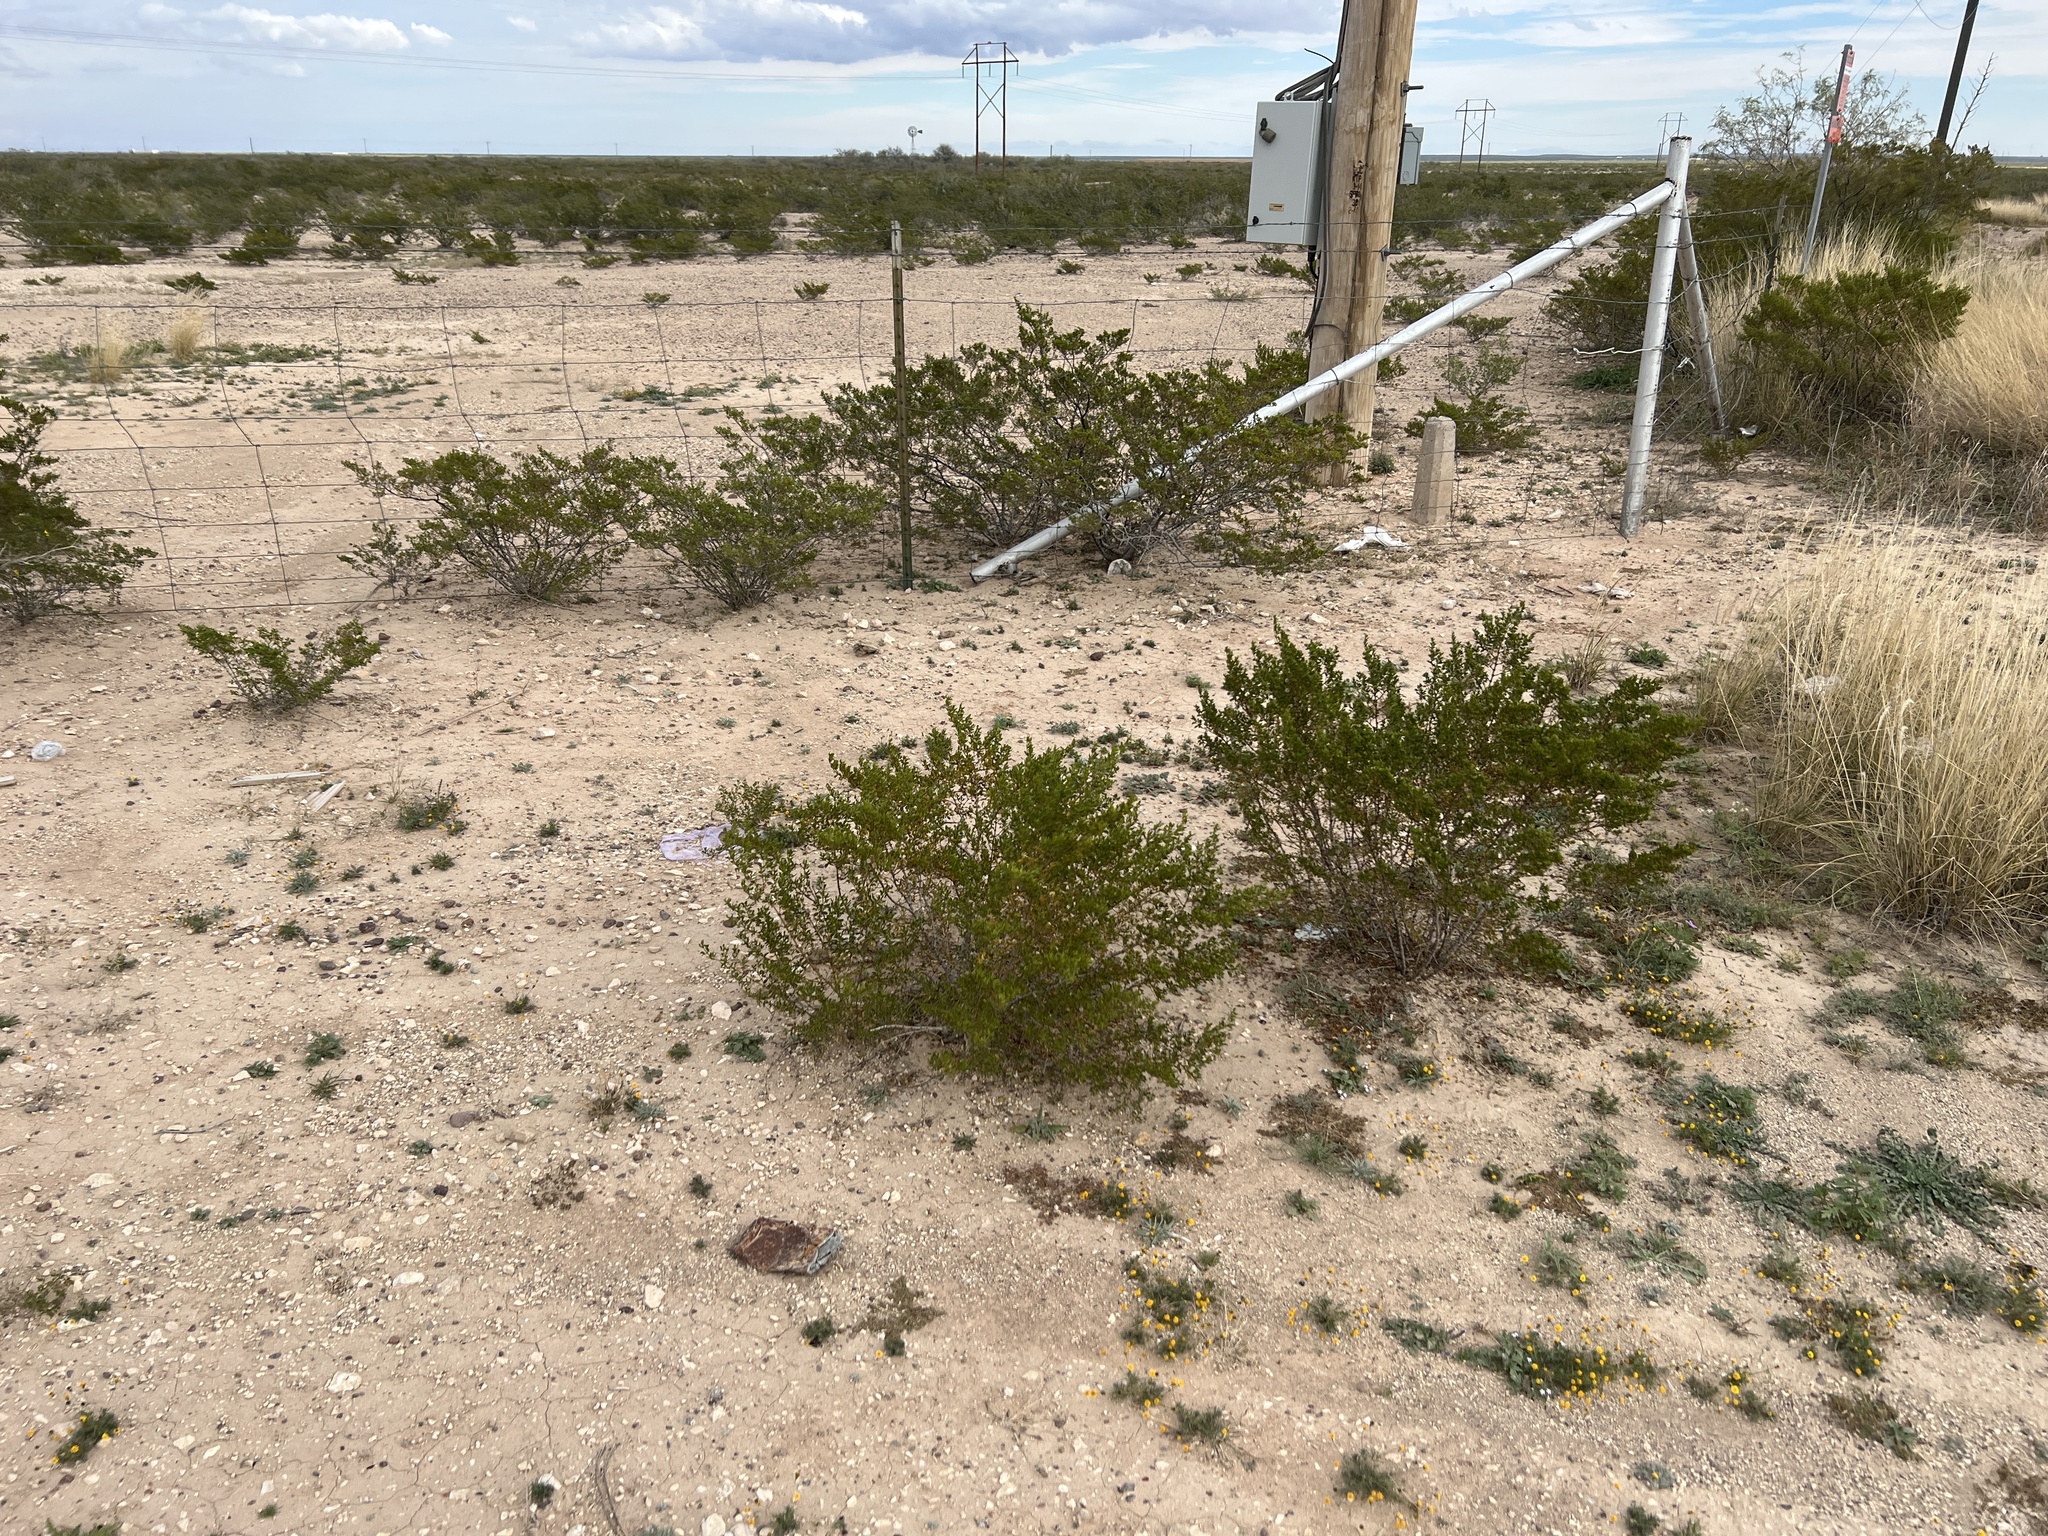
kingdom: Plantae
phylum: Tracheophyta
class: Magnoliopsida
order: Zygophyllales
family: Zygophyllaceae
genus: Larrea
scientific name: Larrea tridentata
